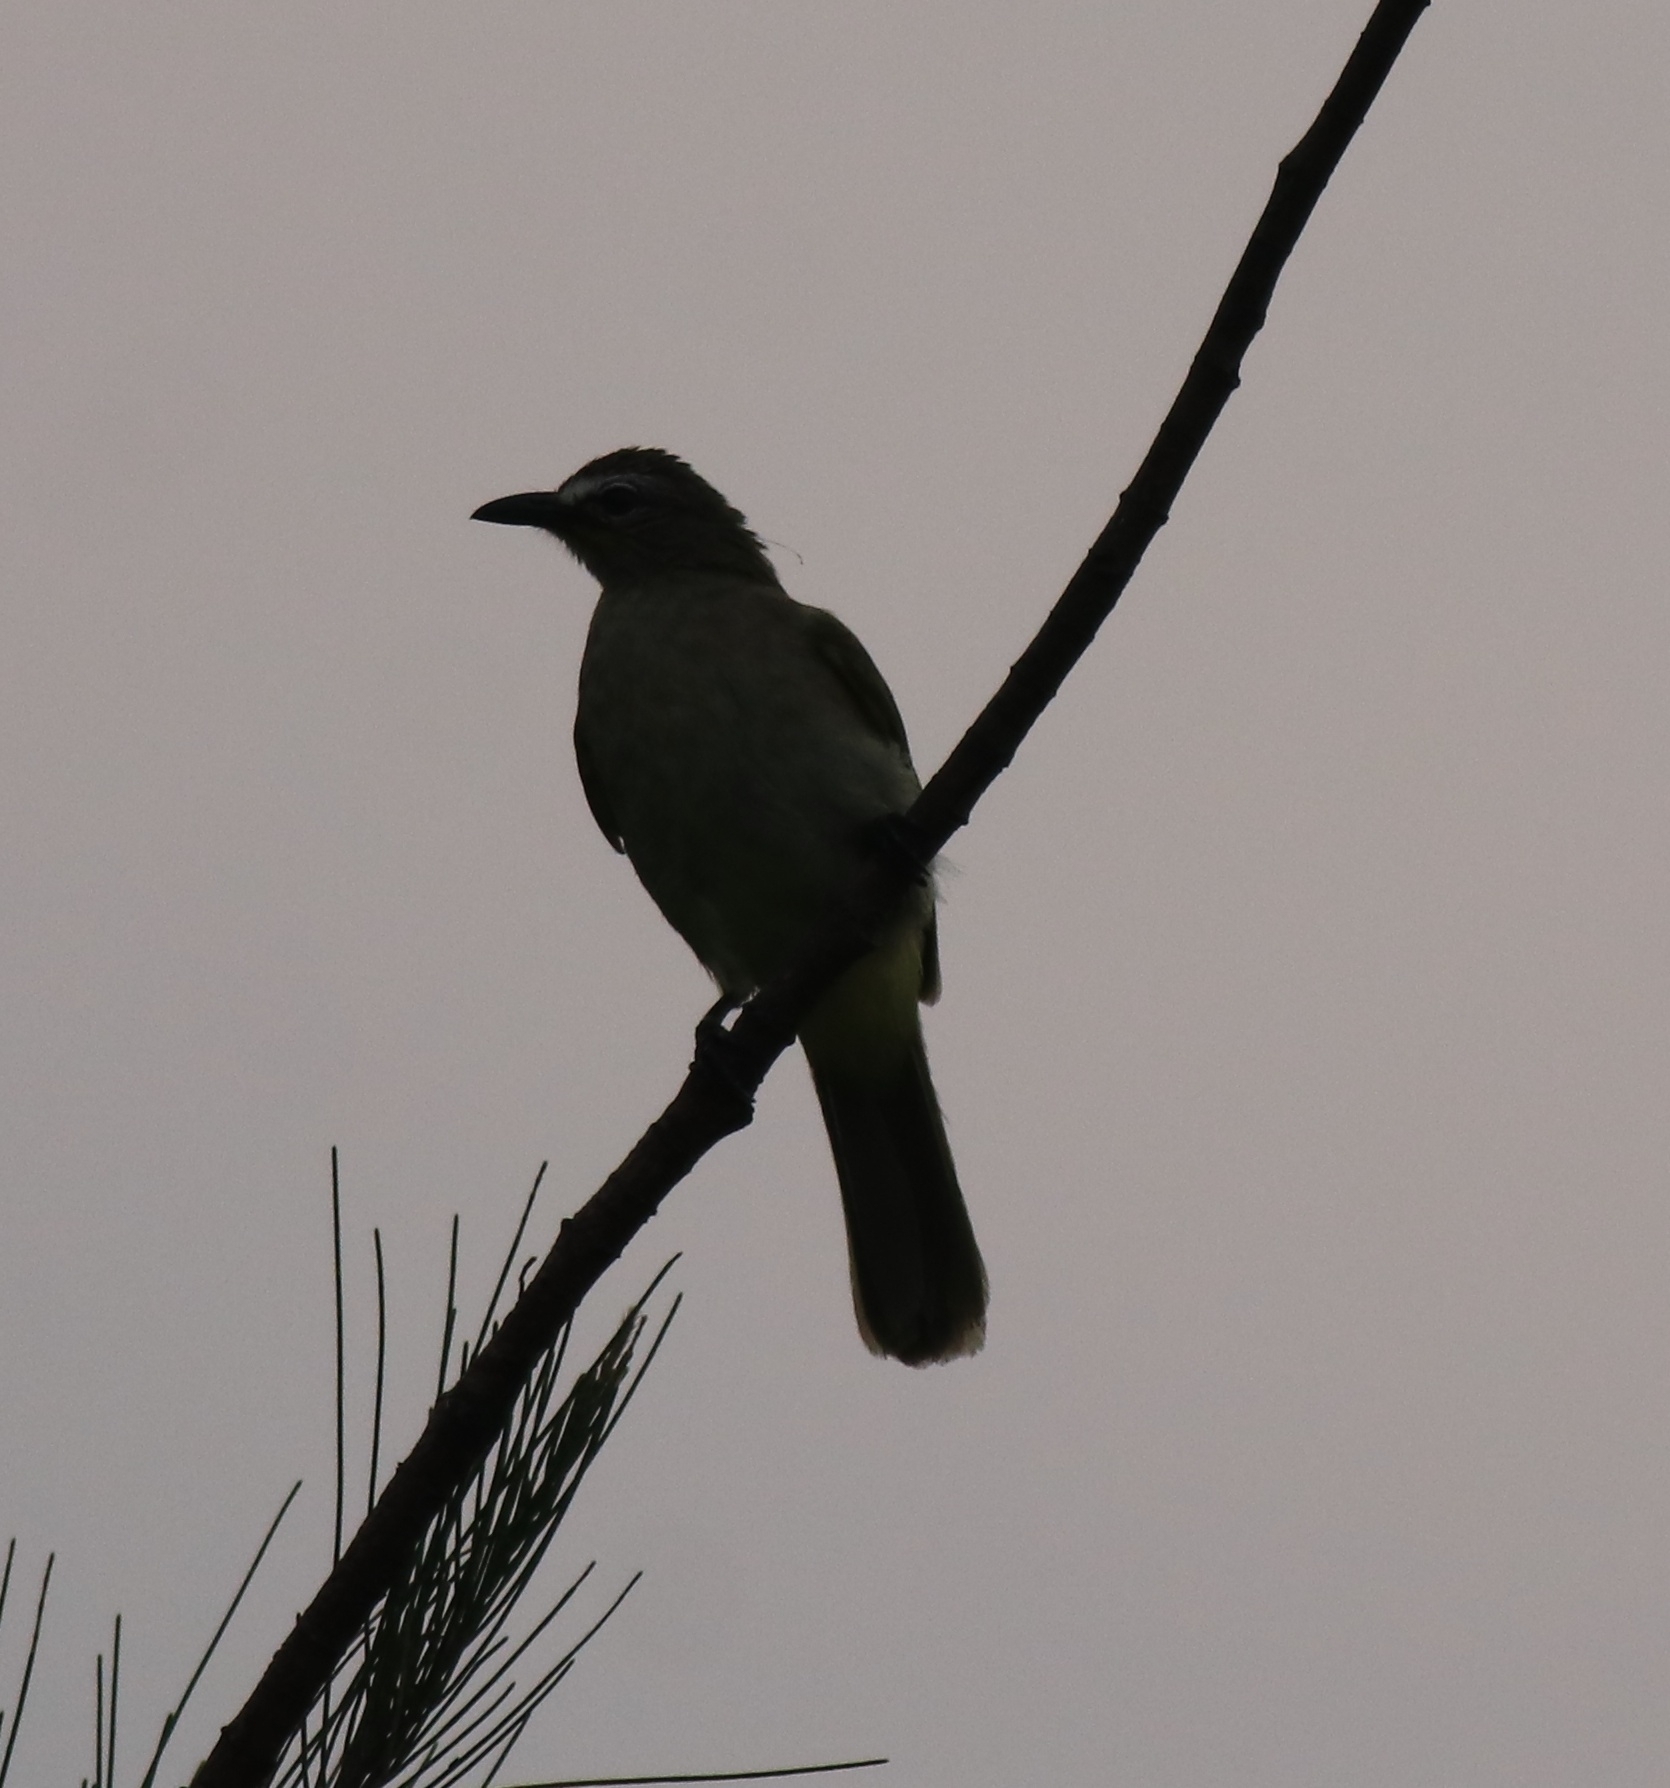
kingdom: Animalia
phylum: Chordata
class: Aves
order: Passeriformes
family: Pycnonotidae
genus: Pycnonotus
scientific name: Pycnonotus luteolus
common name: White-browed bulbul
